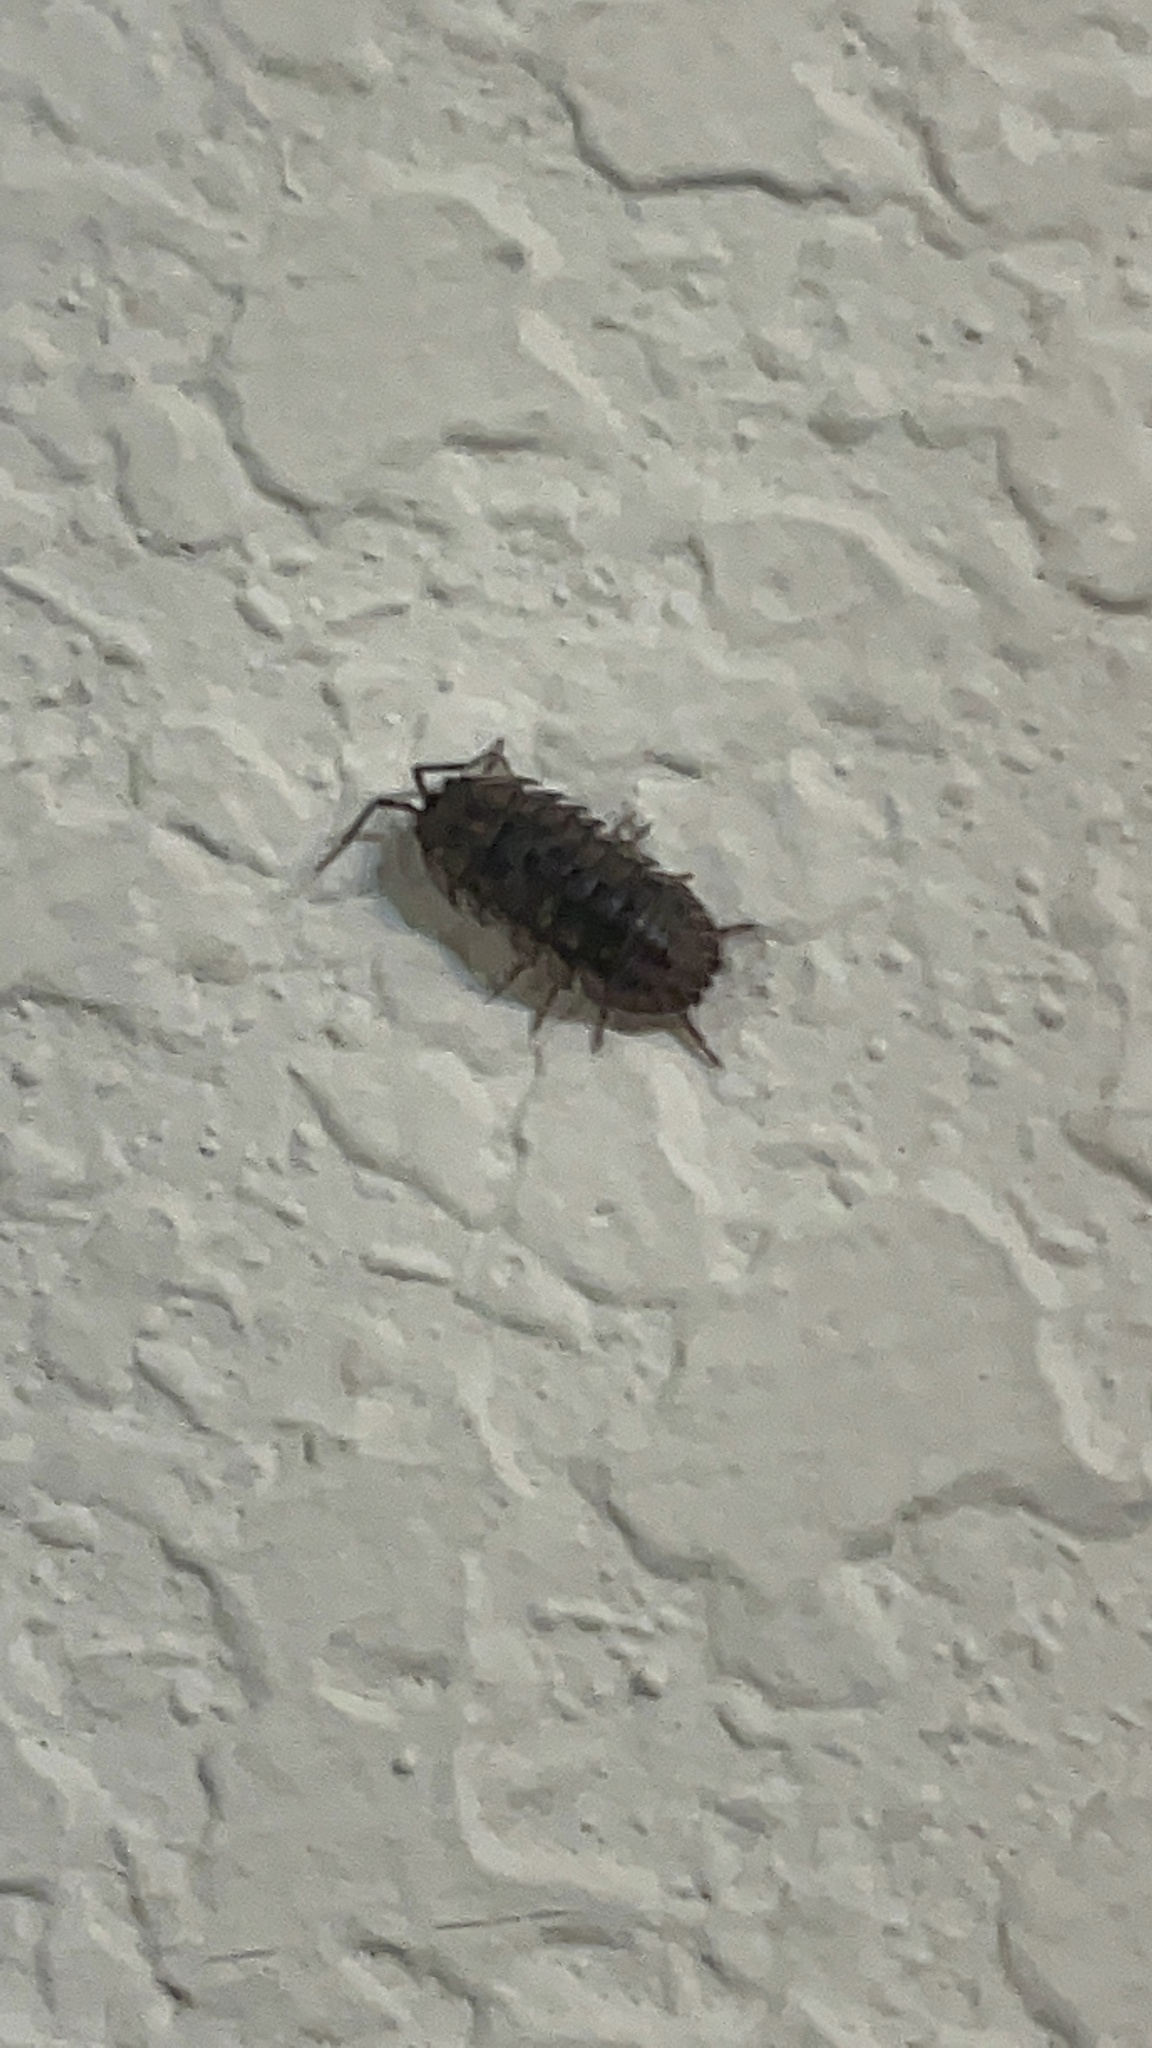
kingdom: Animalia
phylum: Arthropoda
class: Malacostraca
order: Isopoda
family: Armadillidiidae
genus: Armadillidium
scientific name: Armadillidium nasatum
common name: Isopod
